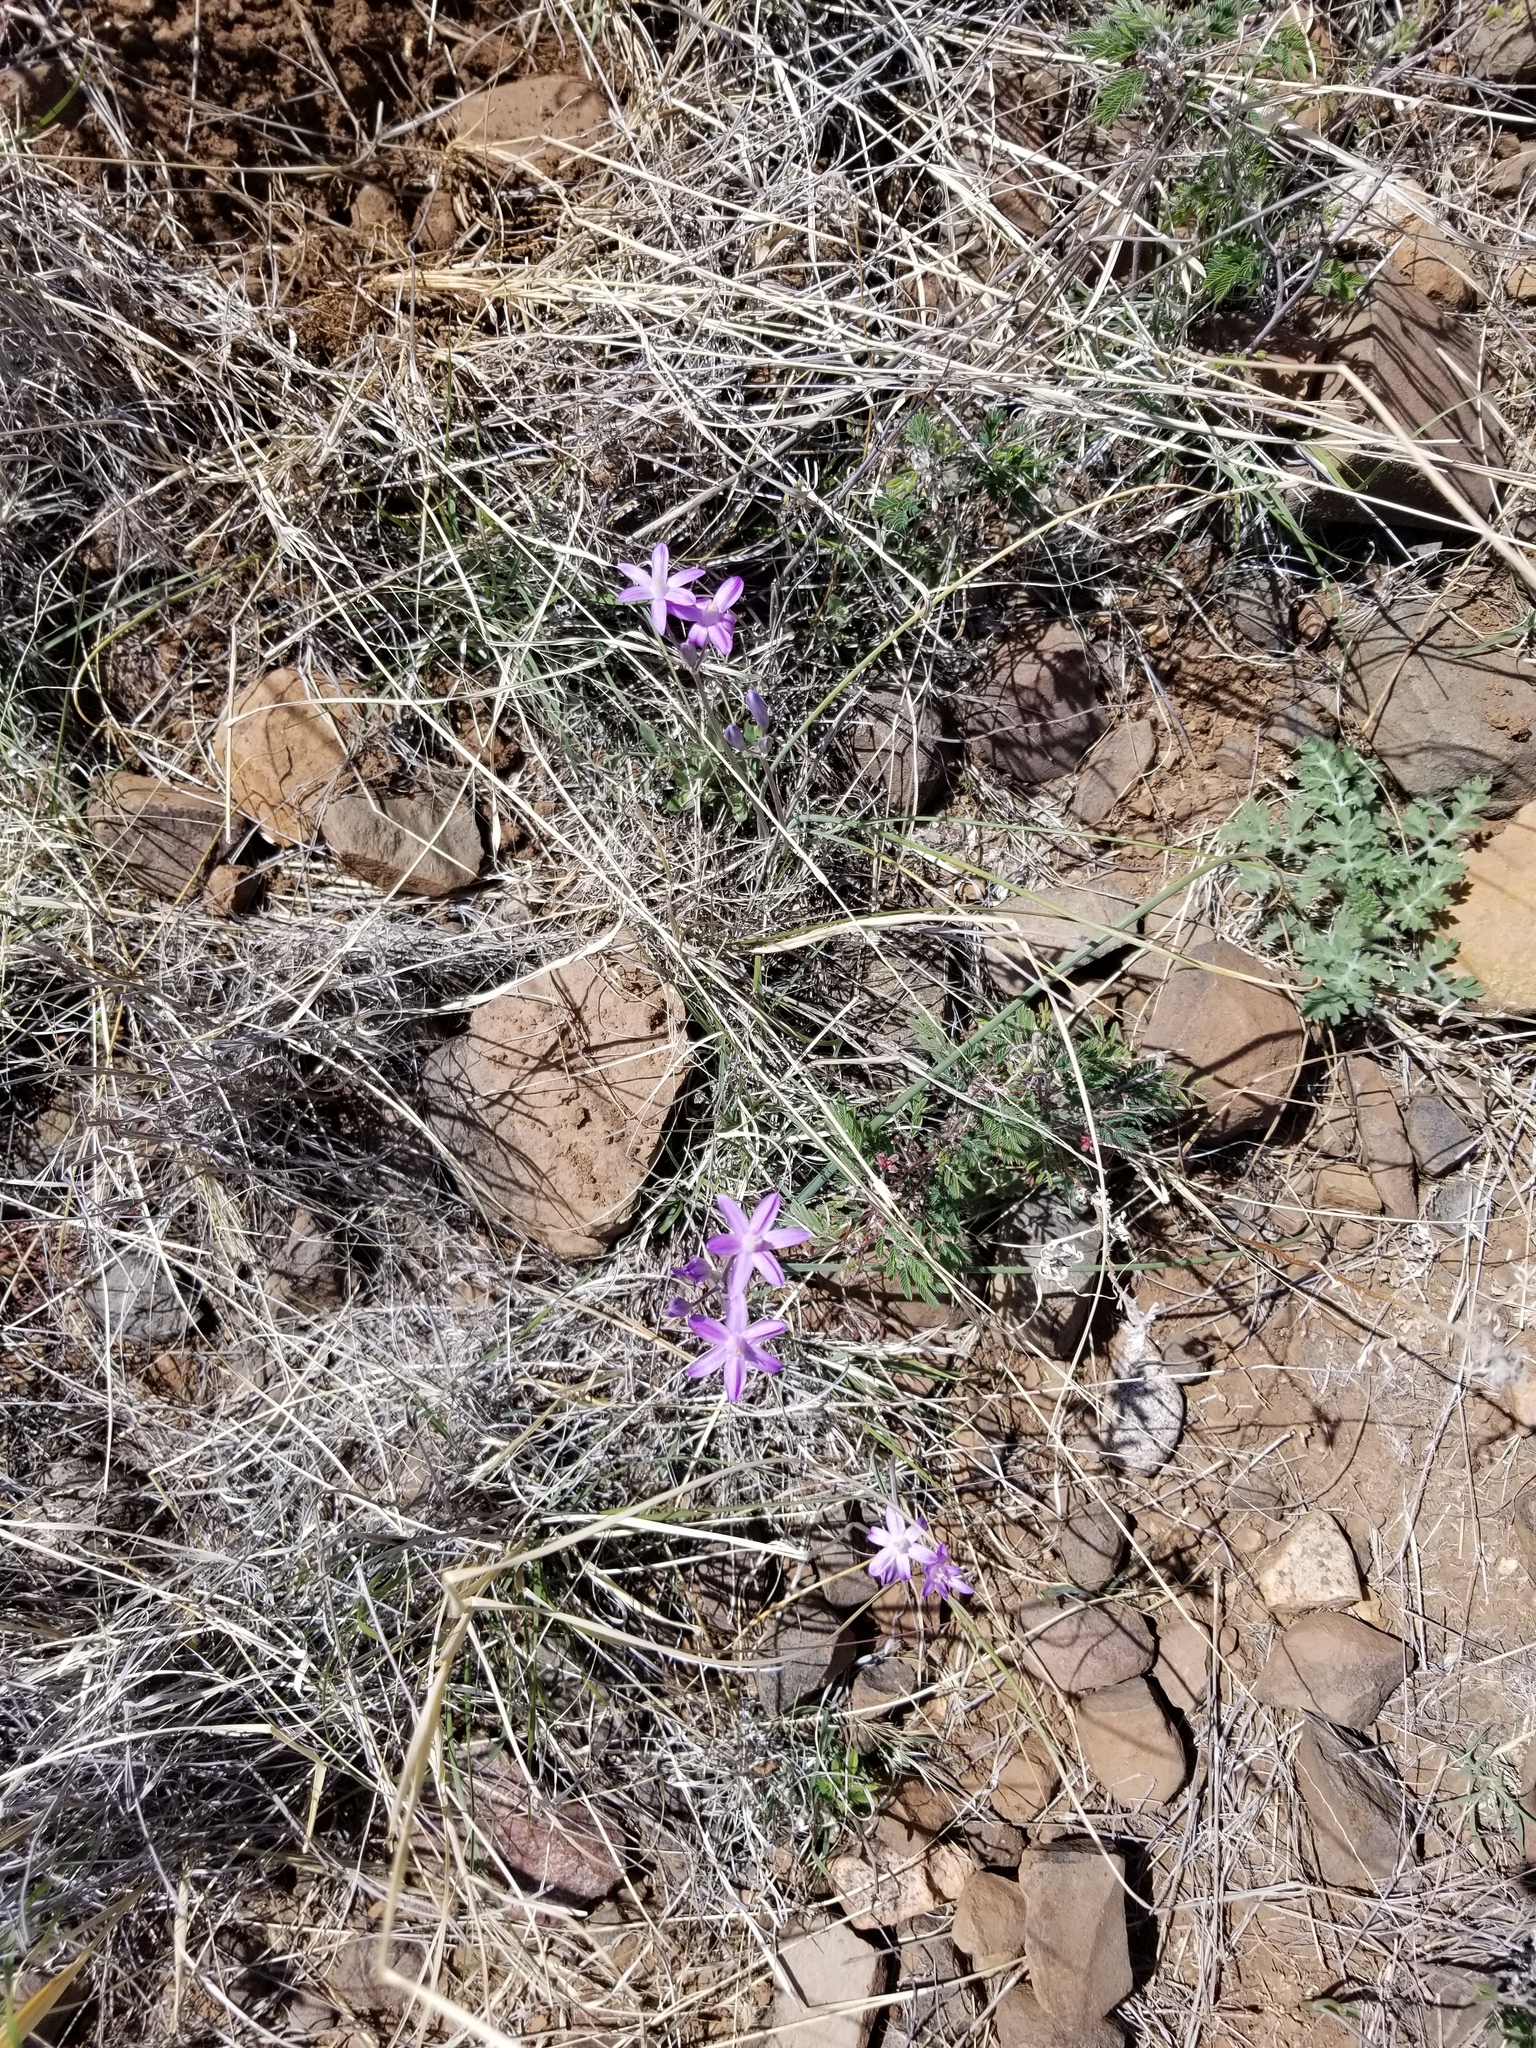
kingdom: Plantae
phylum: Tracheophyta
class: Liliopsida
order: Asparagales
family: Asparagaceae
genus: Dipterostemon
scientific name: Dipterostemon capitatus
